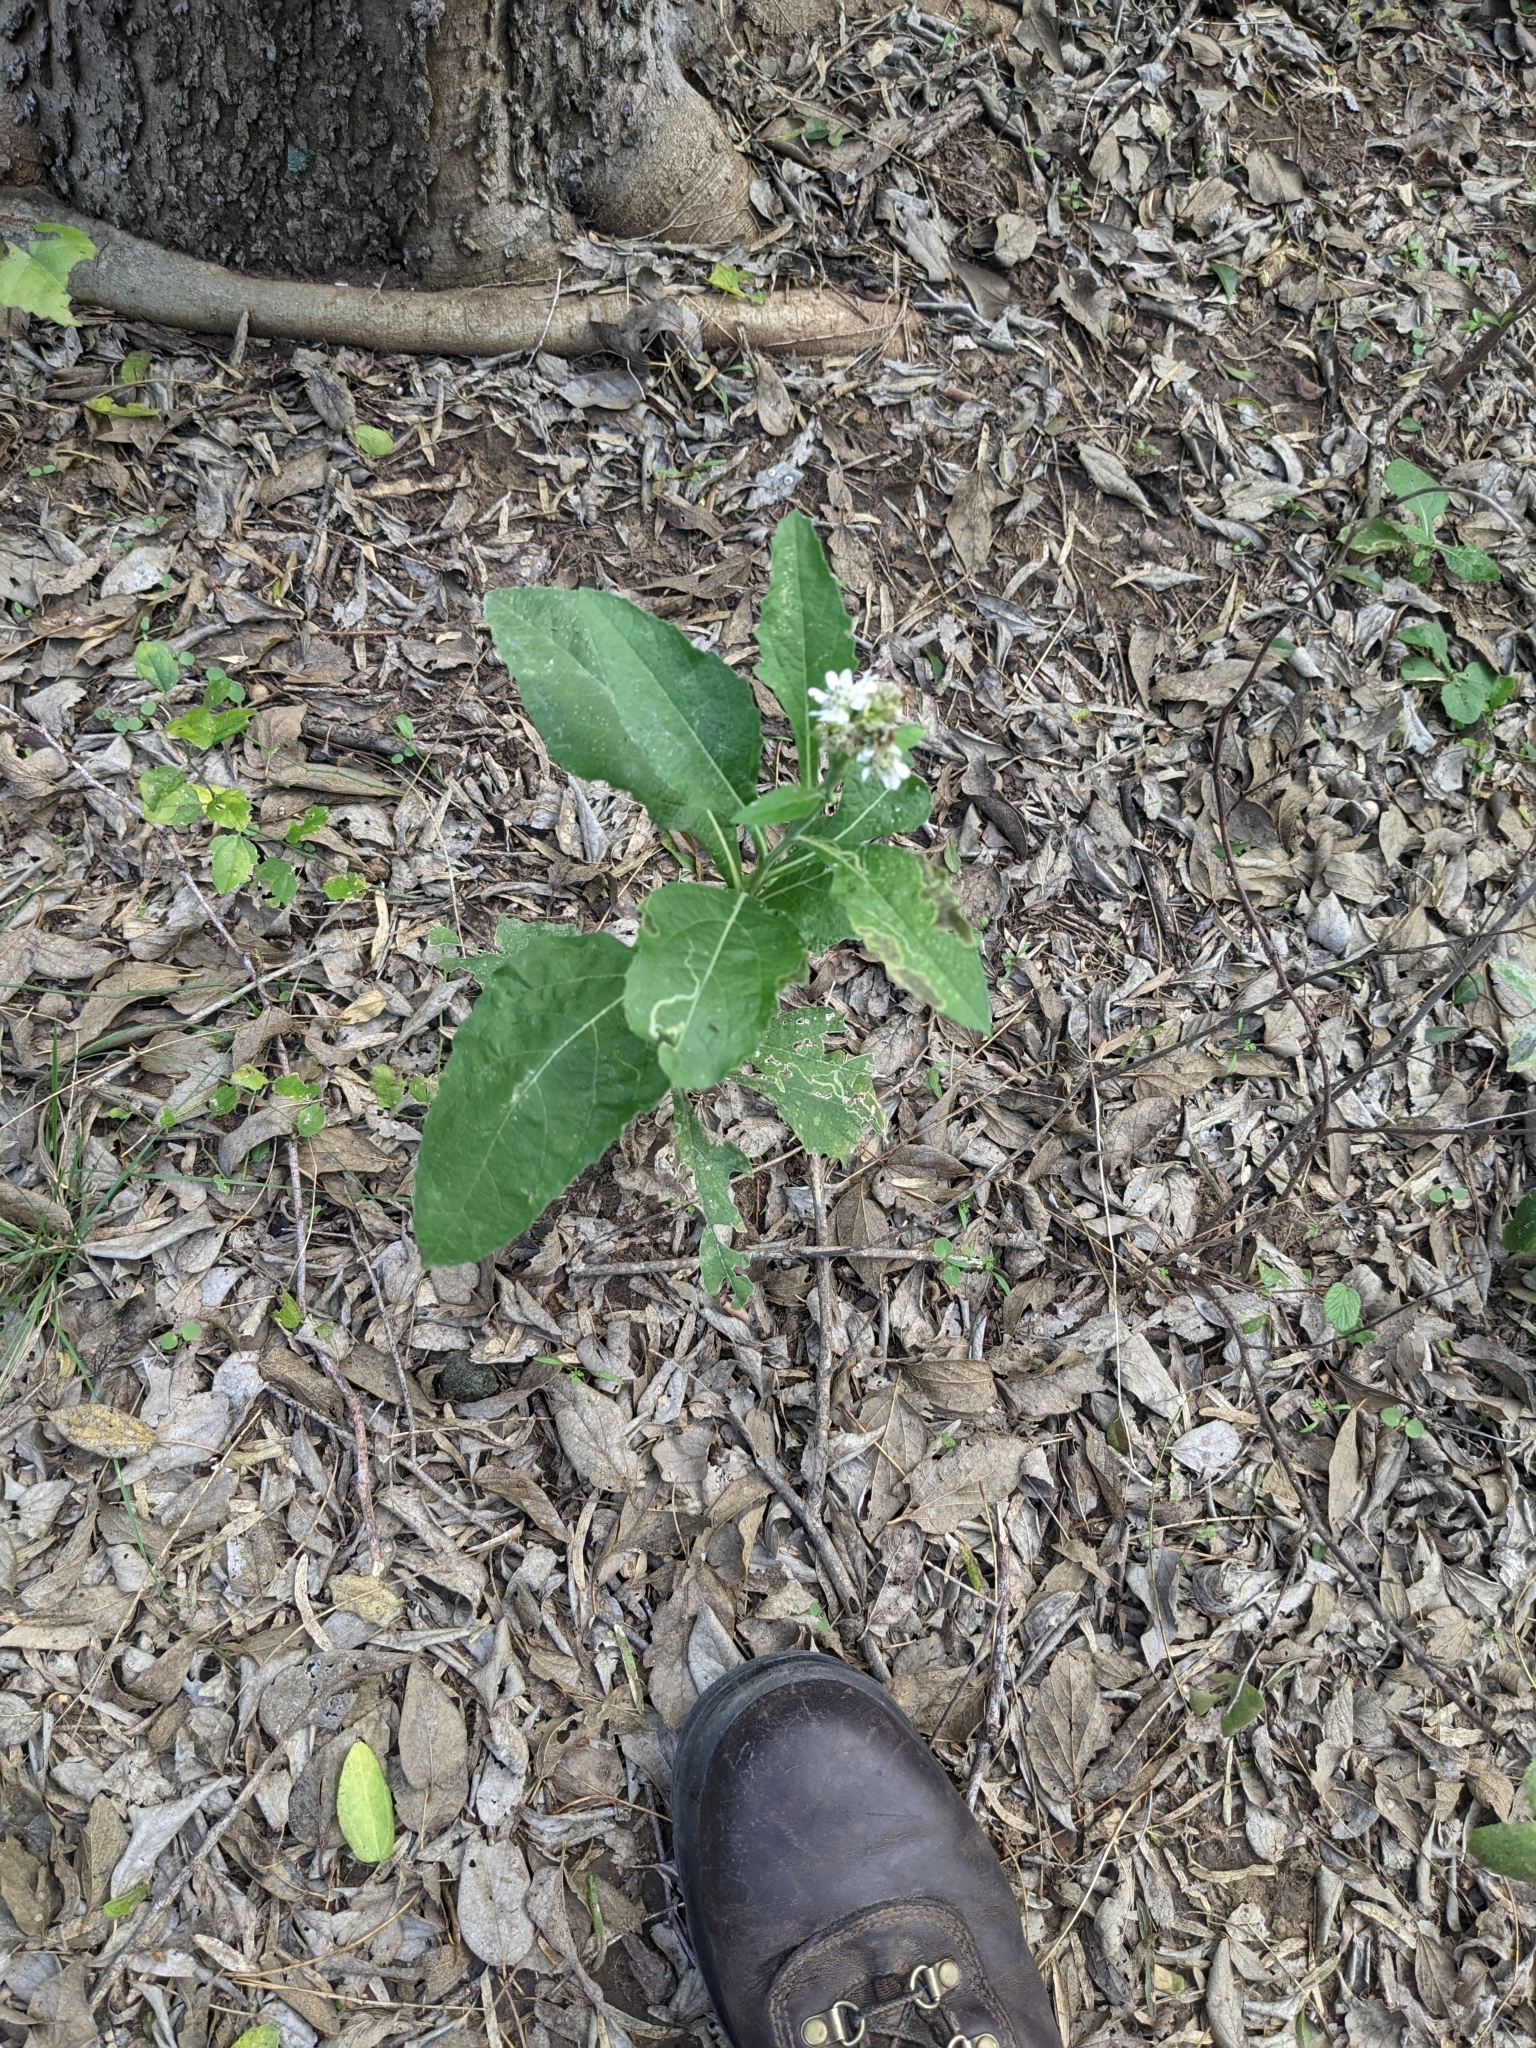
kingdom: Plantae
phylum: Tracheophyta
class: Magnoliopsida
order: Asterales
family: Asteraceae
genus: Verbesina
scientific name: Verbesina microptera
